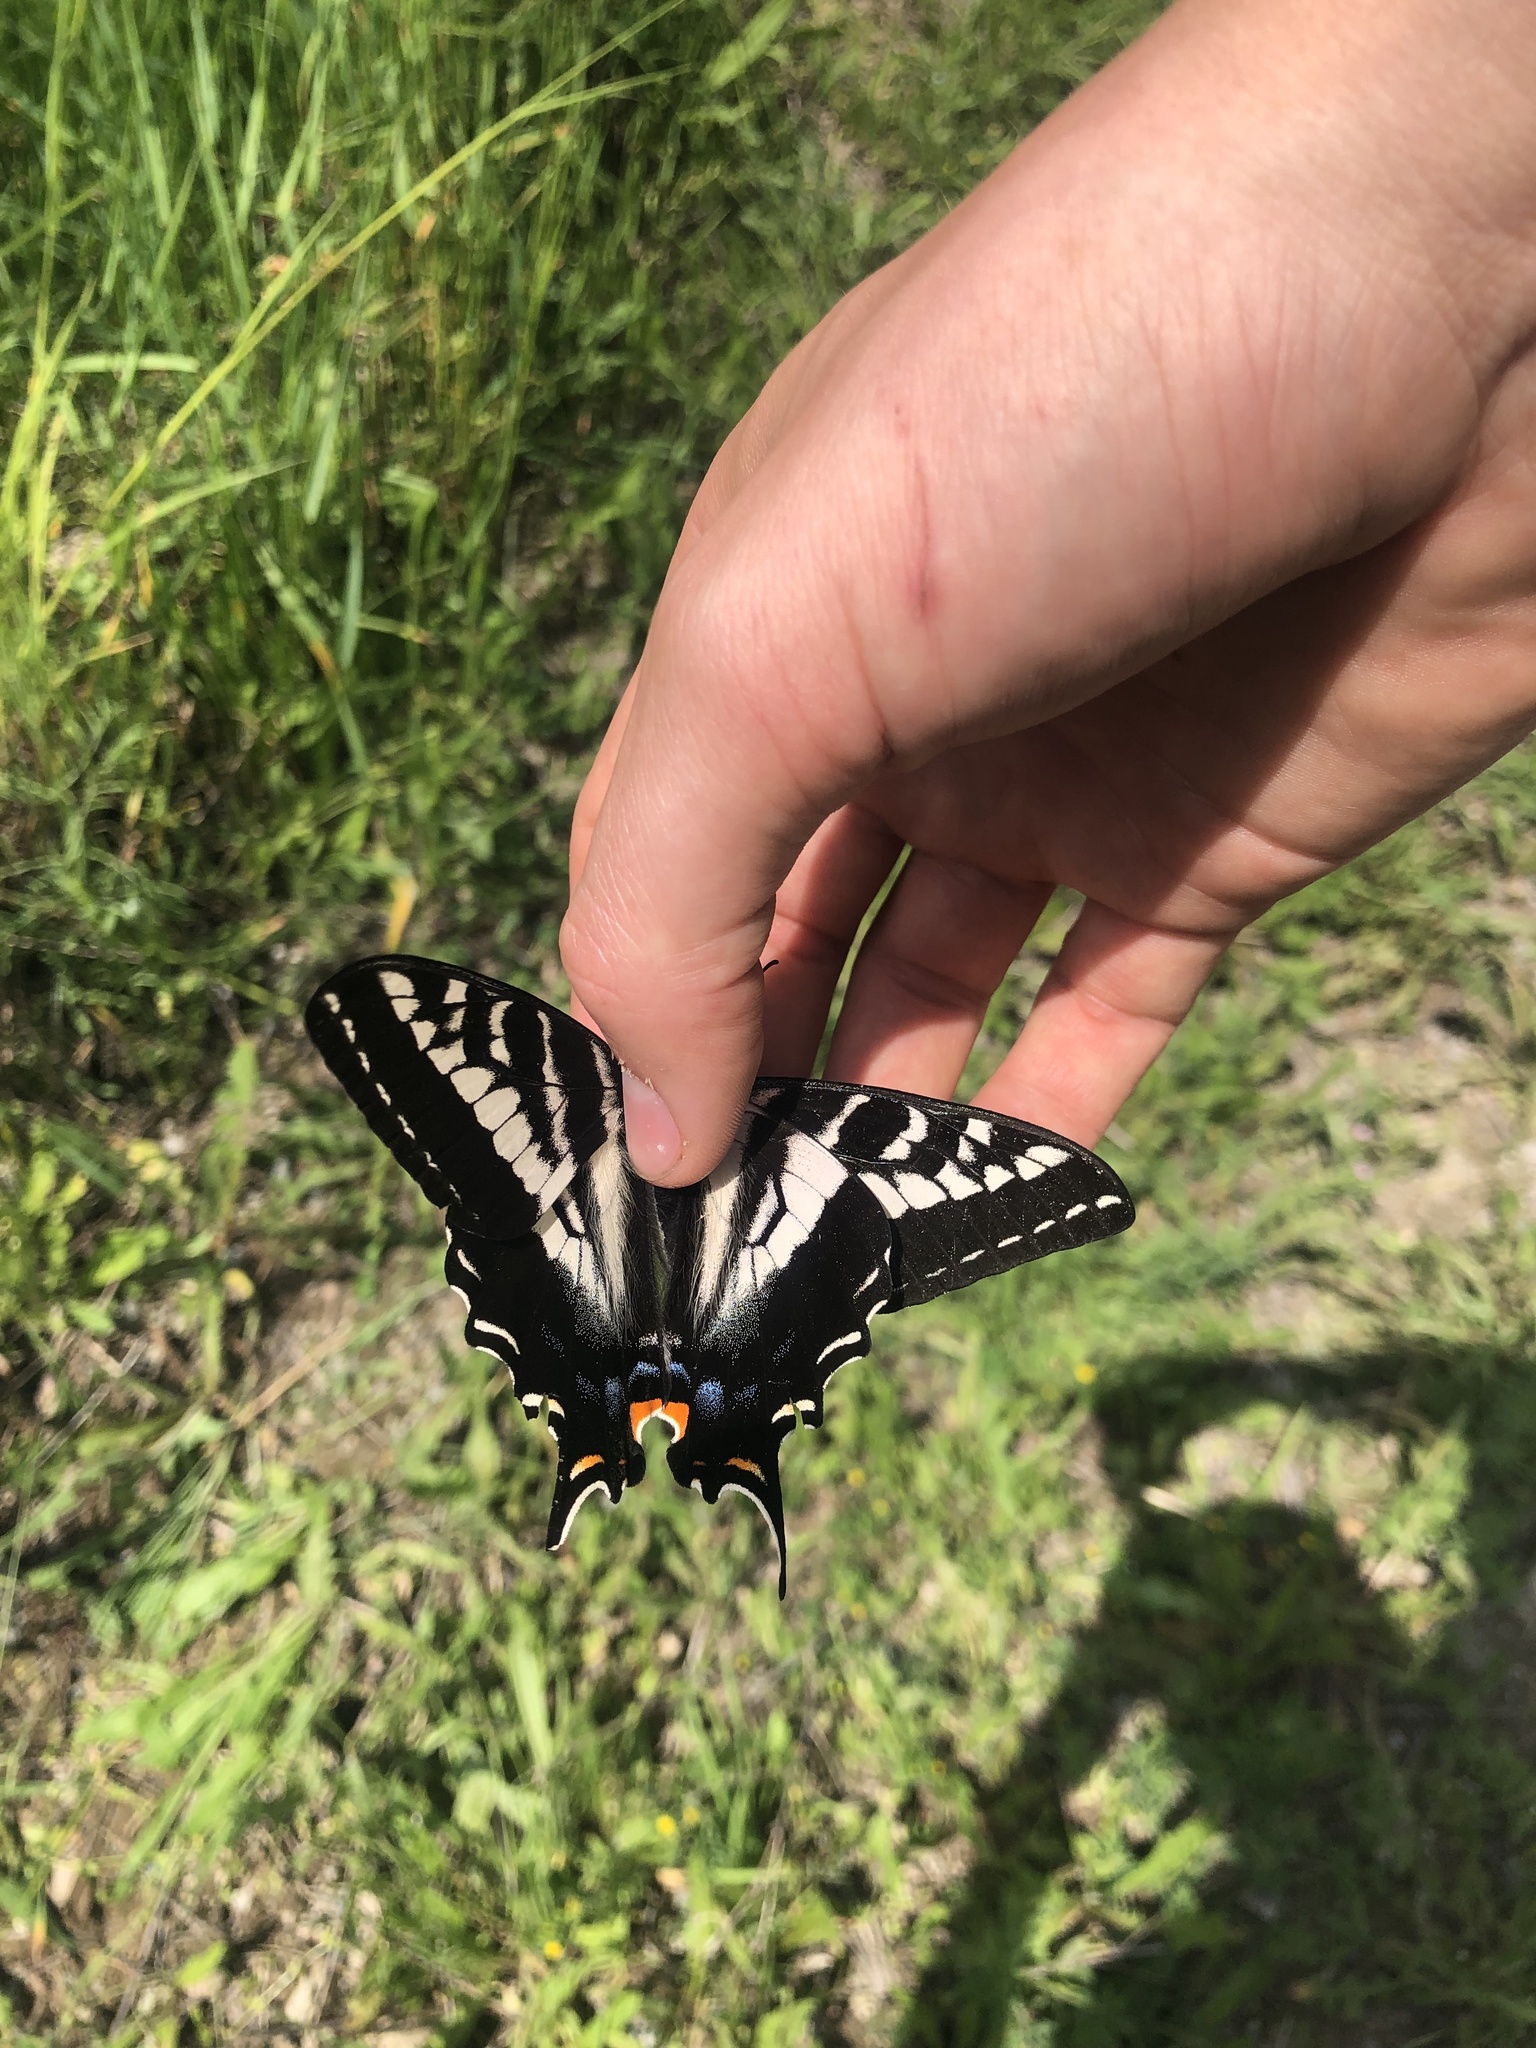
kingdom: Animalia
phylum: Arthropoda
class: Insecta
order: Lepidoptera
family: Papilionidae
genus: Papilio
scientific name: Papilio eurymedon
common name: Pale tiger swallowtail
